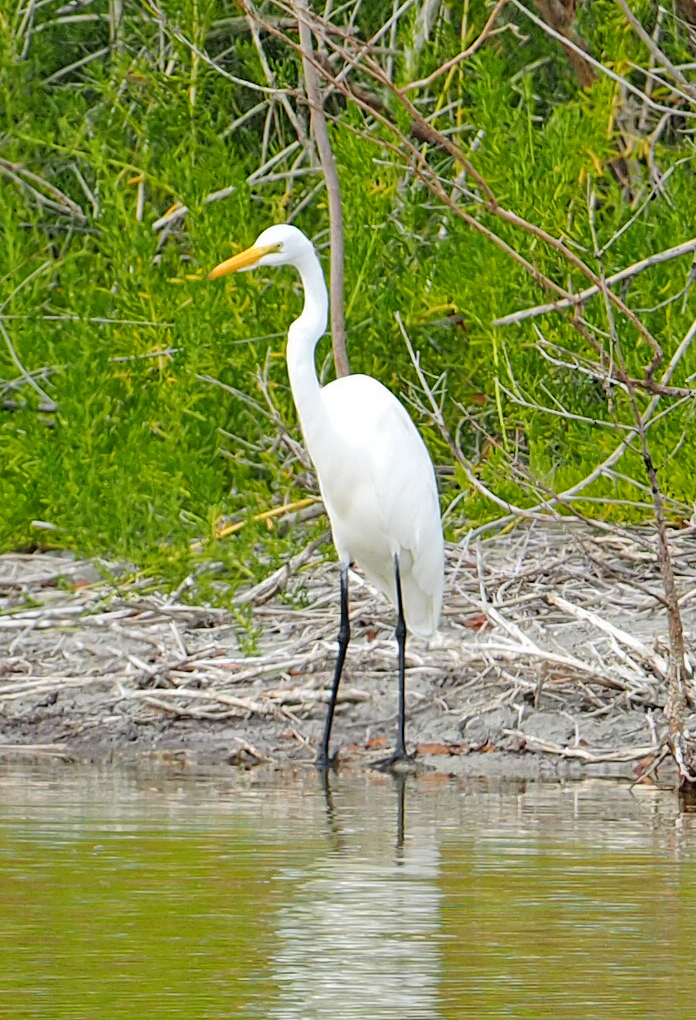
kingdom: Animalia
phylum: Chordata
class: Aves
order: Pelecaniformes
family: Ardeidae
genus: Ardea
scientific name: Ardea alba
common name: Great egret
